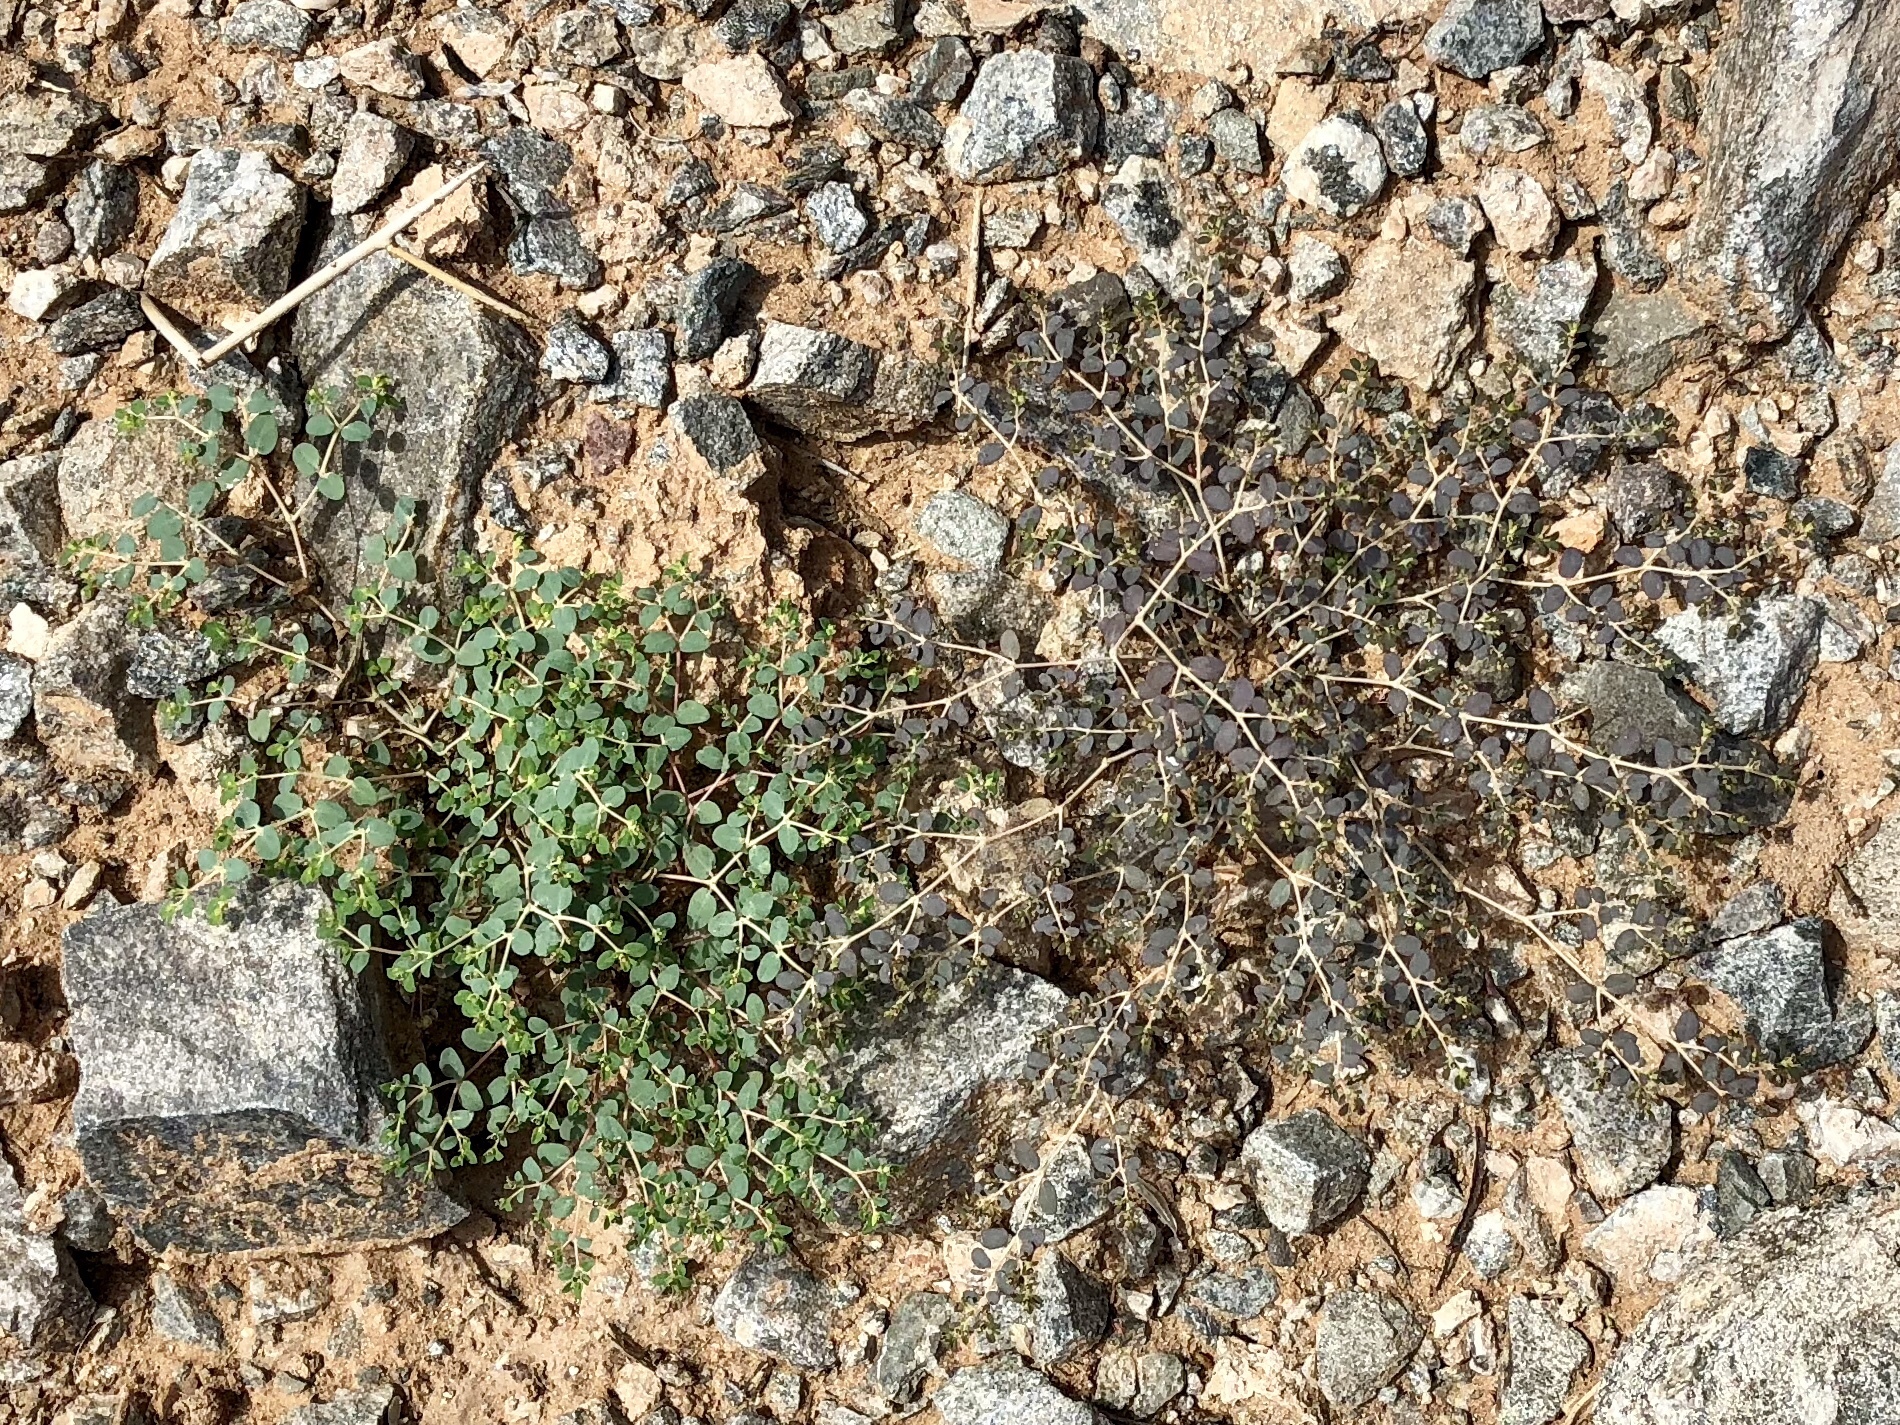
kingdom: Plantae
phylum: Tracheophyta
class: Magnoliopsida
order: Malpighiales
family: Euphorbiaceae
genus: Euphorbia
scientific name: Euphorbia polycarpa
